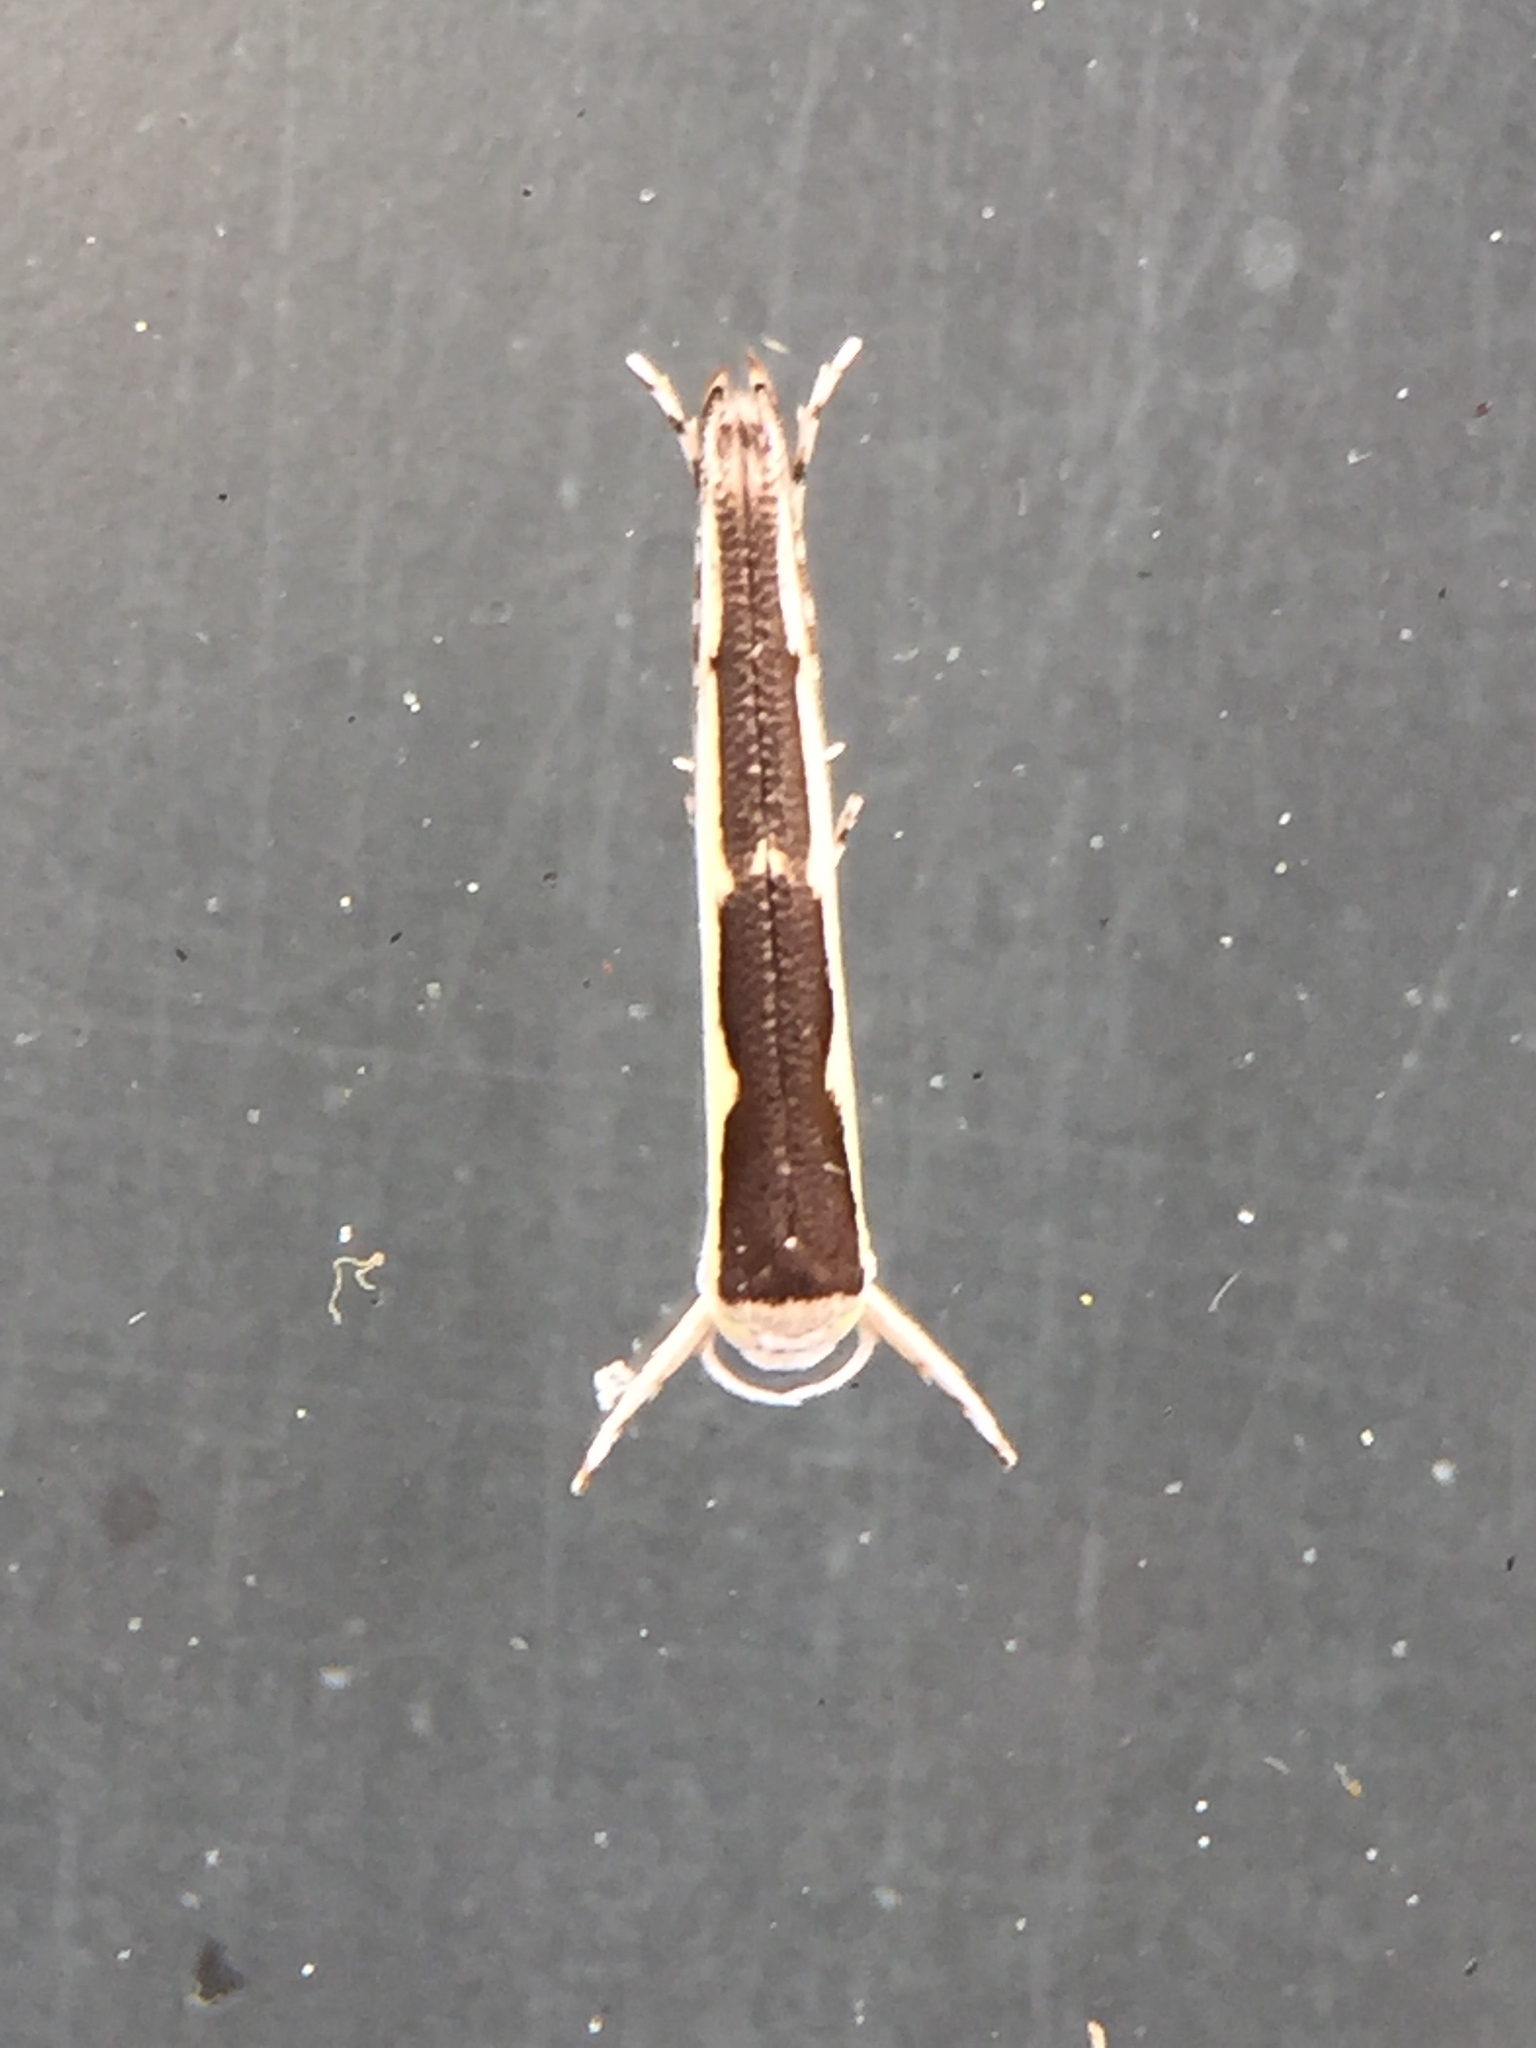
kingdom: Animalia
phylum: Arthropoda
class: Insecta
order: Lepidoptera
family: Roeslerstammiidae
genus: Vanicela
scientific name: Vanicela disjunctella
